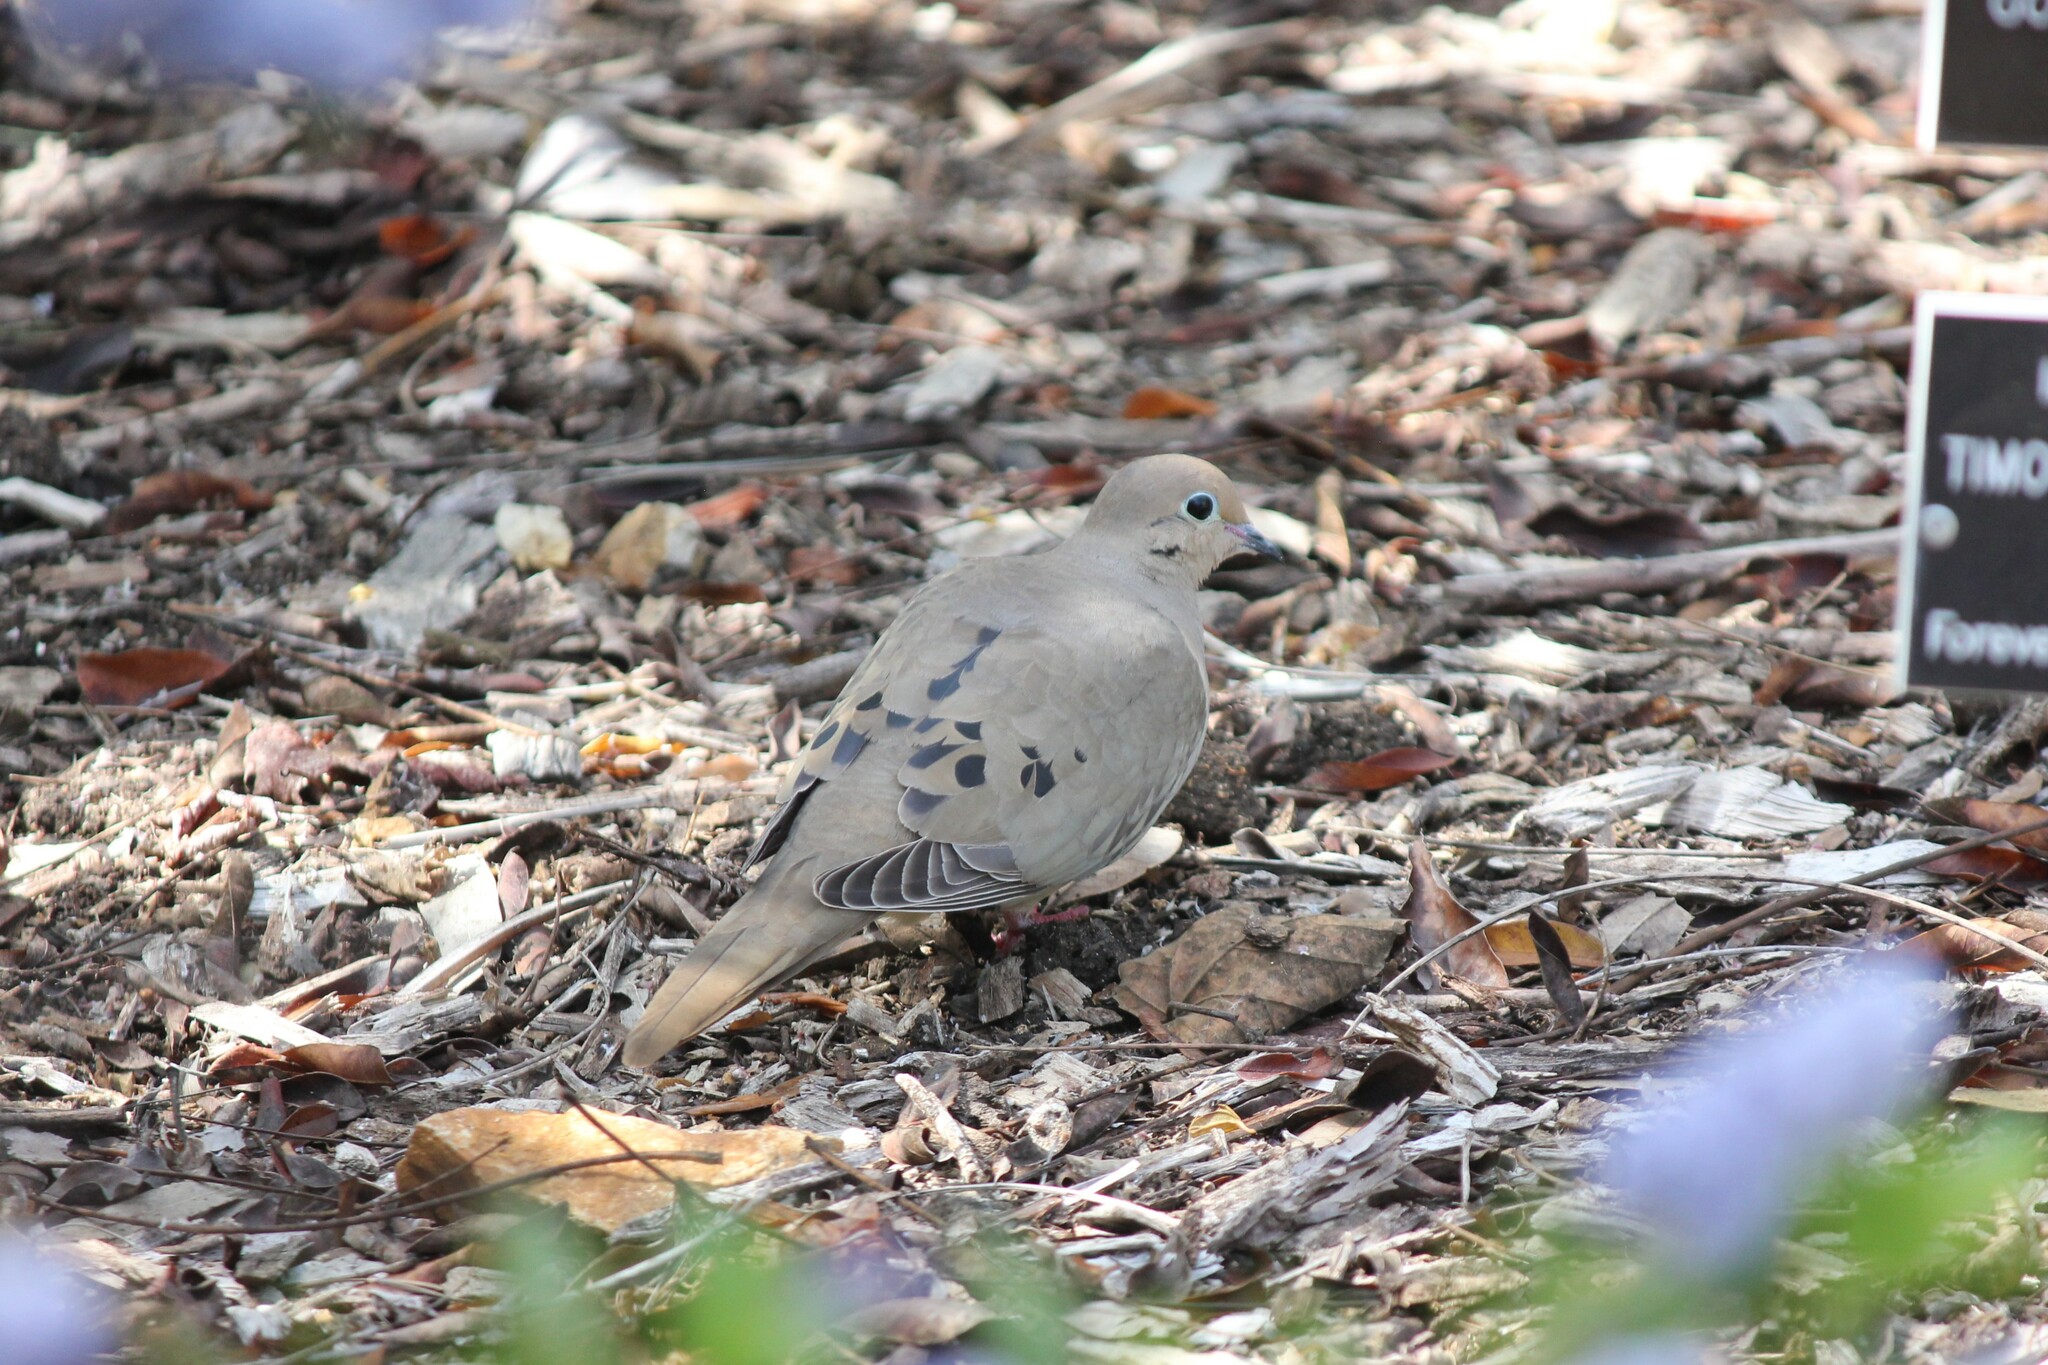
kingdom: Animalia
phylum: Chordata
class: Aves
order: Columbiformes
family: Columbidae
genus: Zenaida
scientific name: Zenaida macroura
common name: Mourning dove
